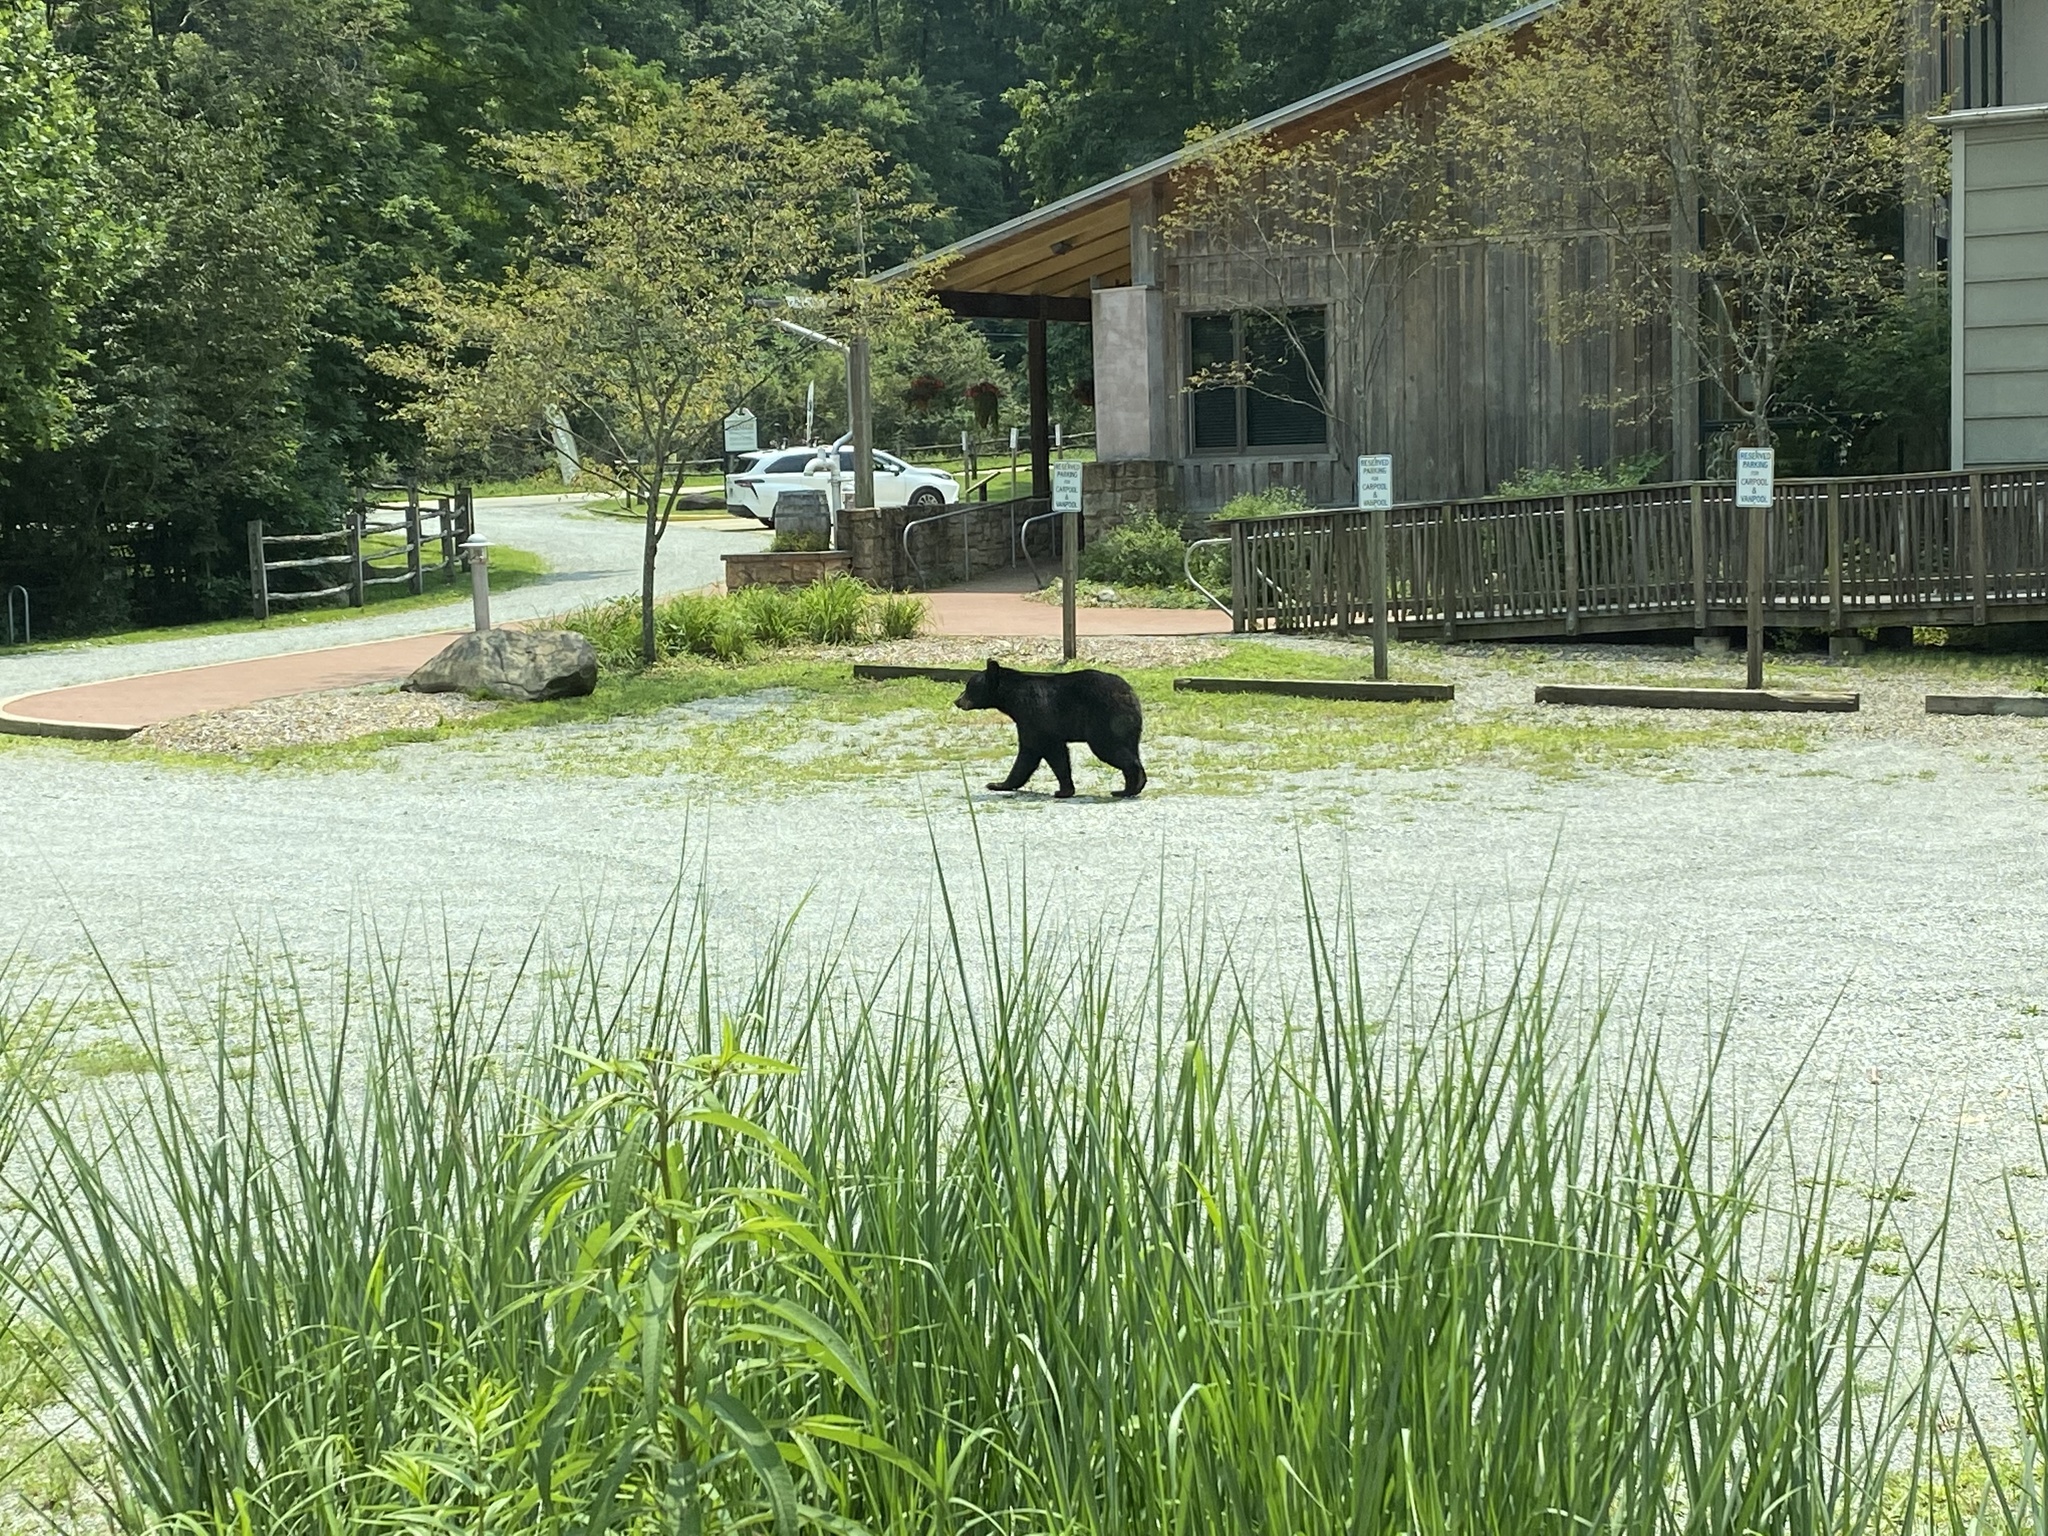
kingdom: Animalia
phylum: Chordata
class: Mammalia
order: Carnivora
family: Ursidae
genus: Ursus
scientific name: Ursus americanus
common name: American black bear
